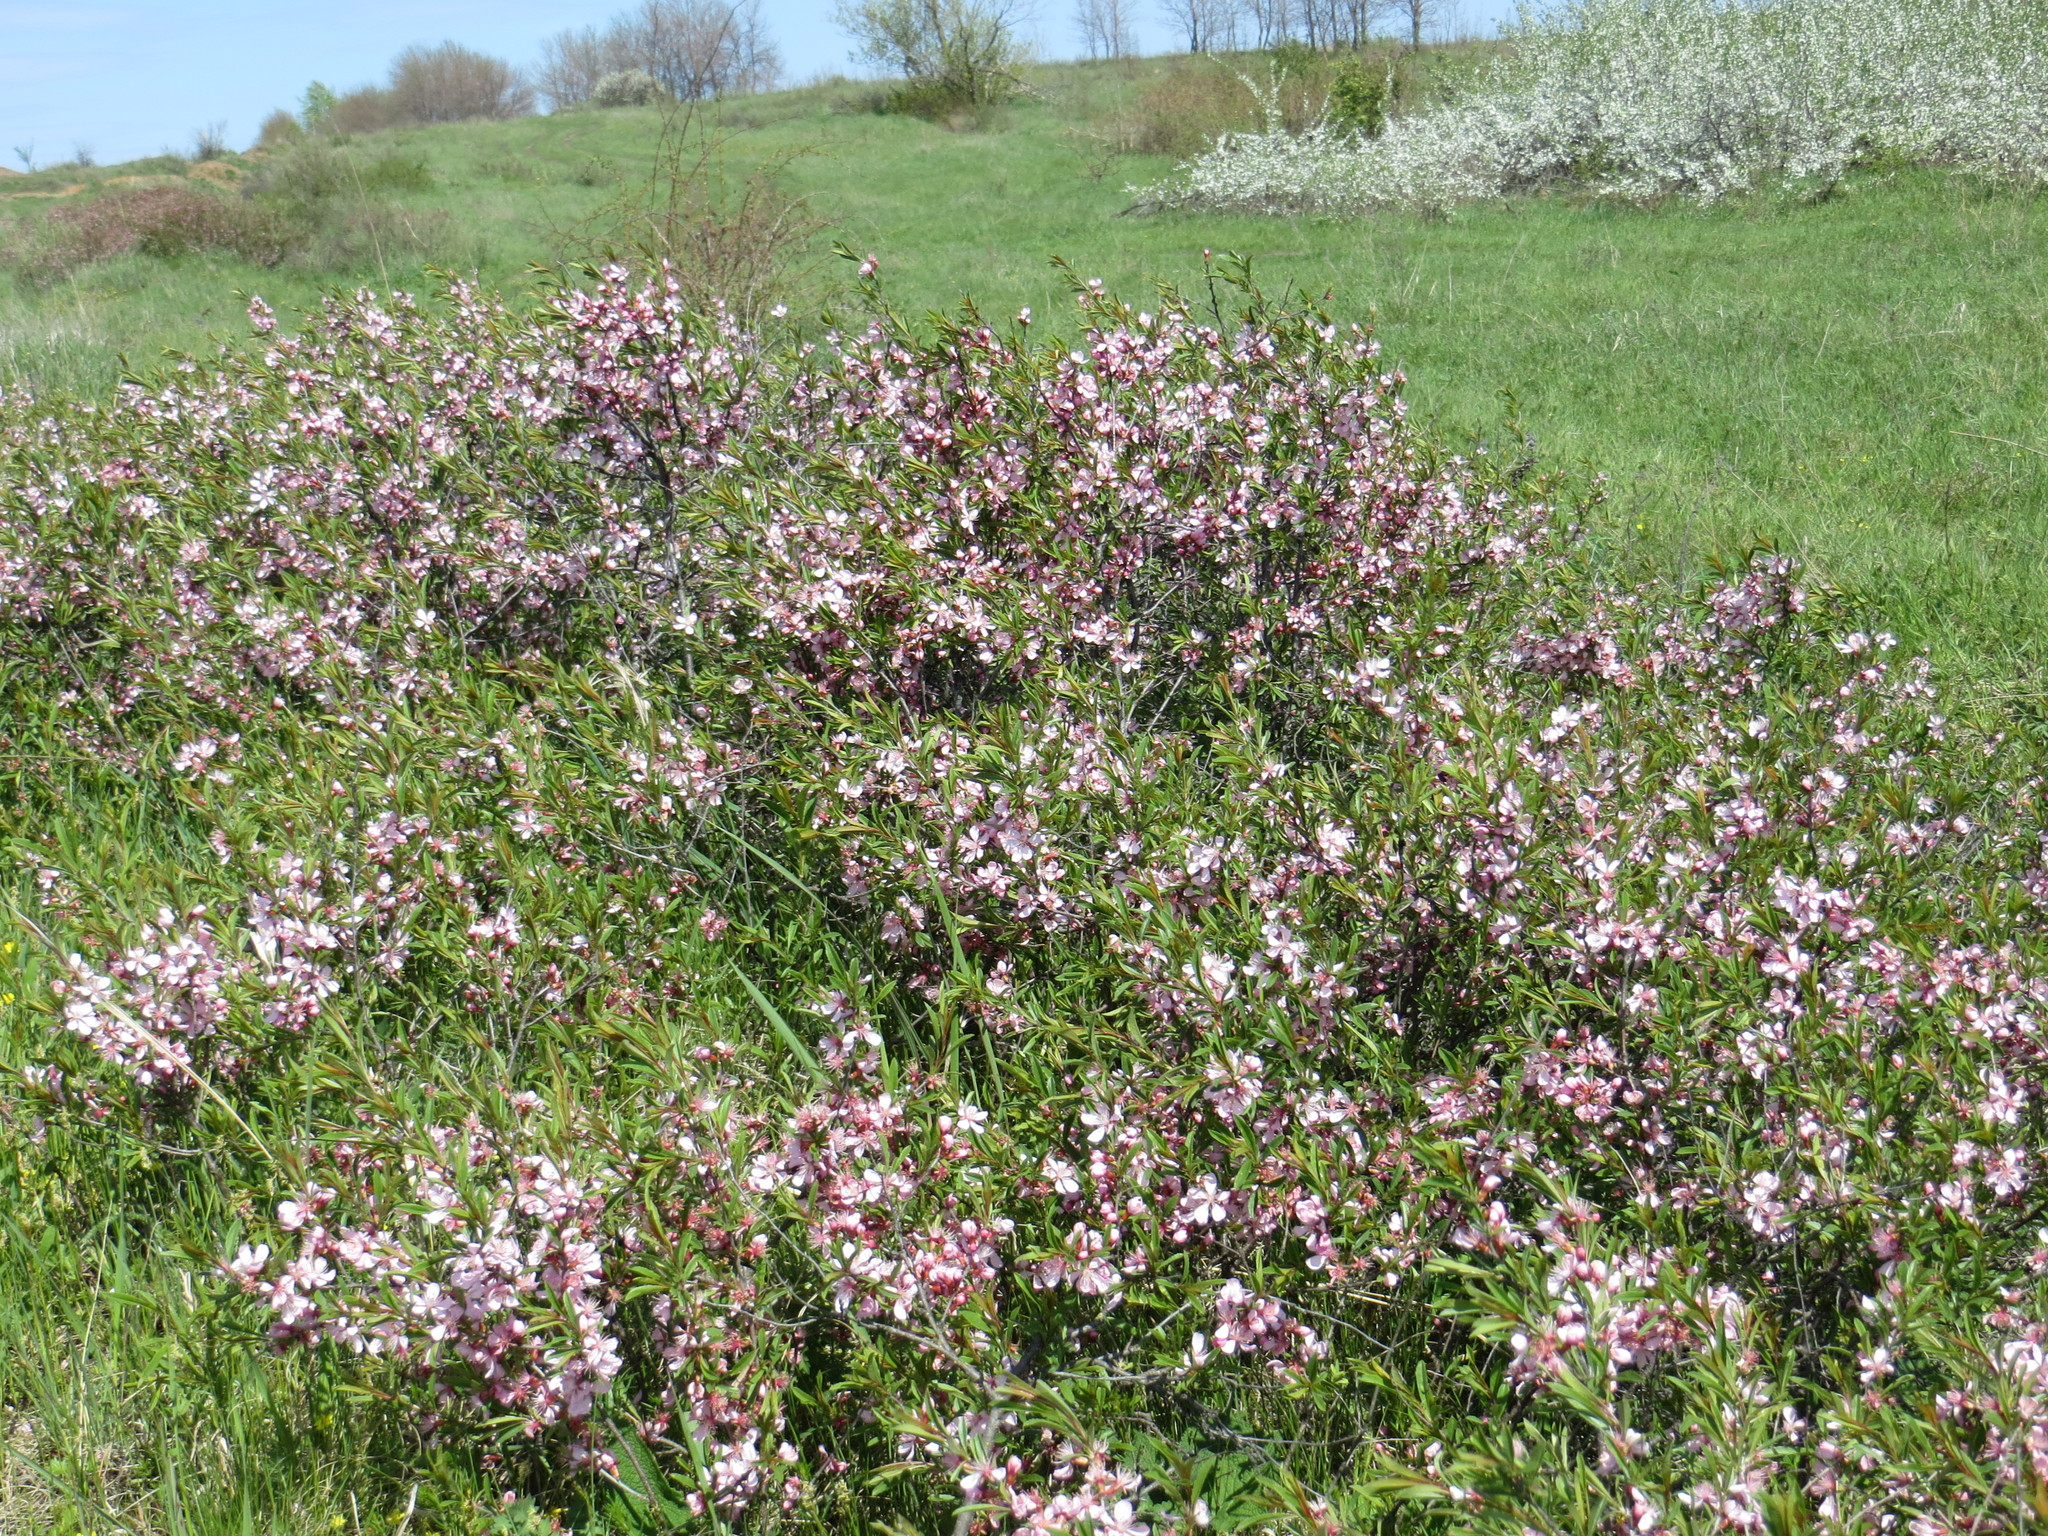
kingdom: Plantae
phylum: Tracheophyta
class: Magnoliopsida
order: Rosales
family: Rosaceae
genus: Prunus
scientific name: Prunus tenella
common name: Dwarf russian almond
